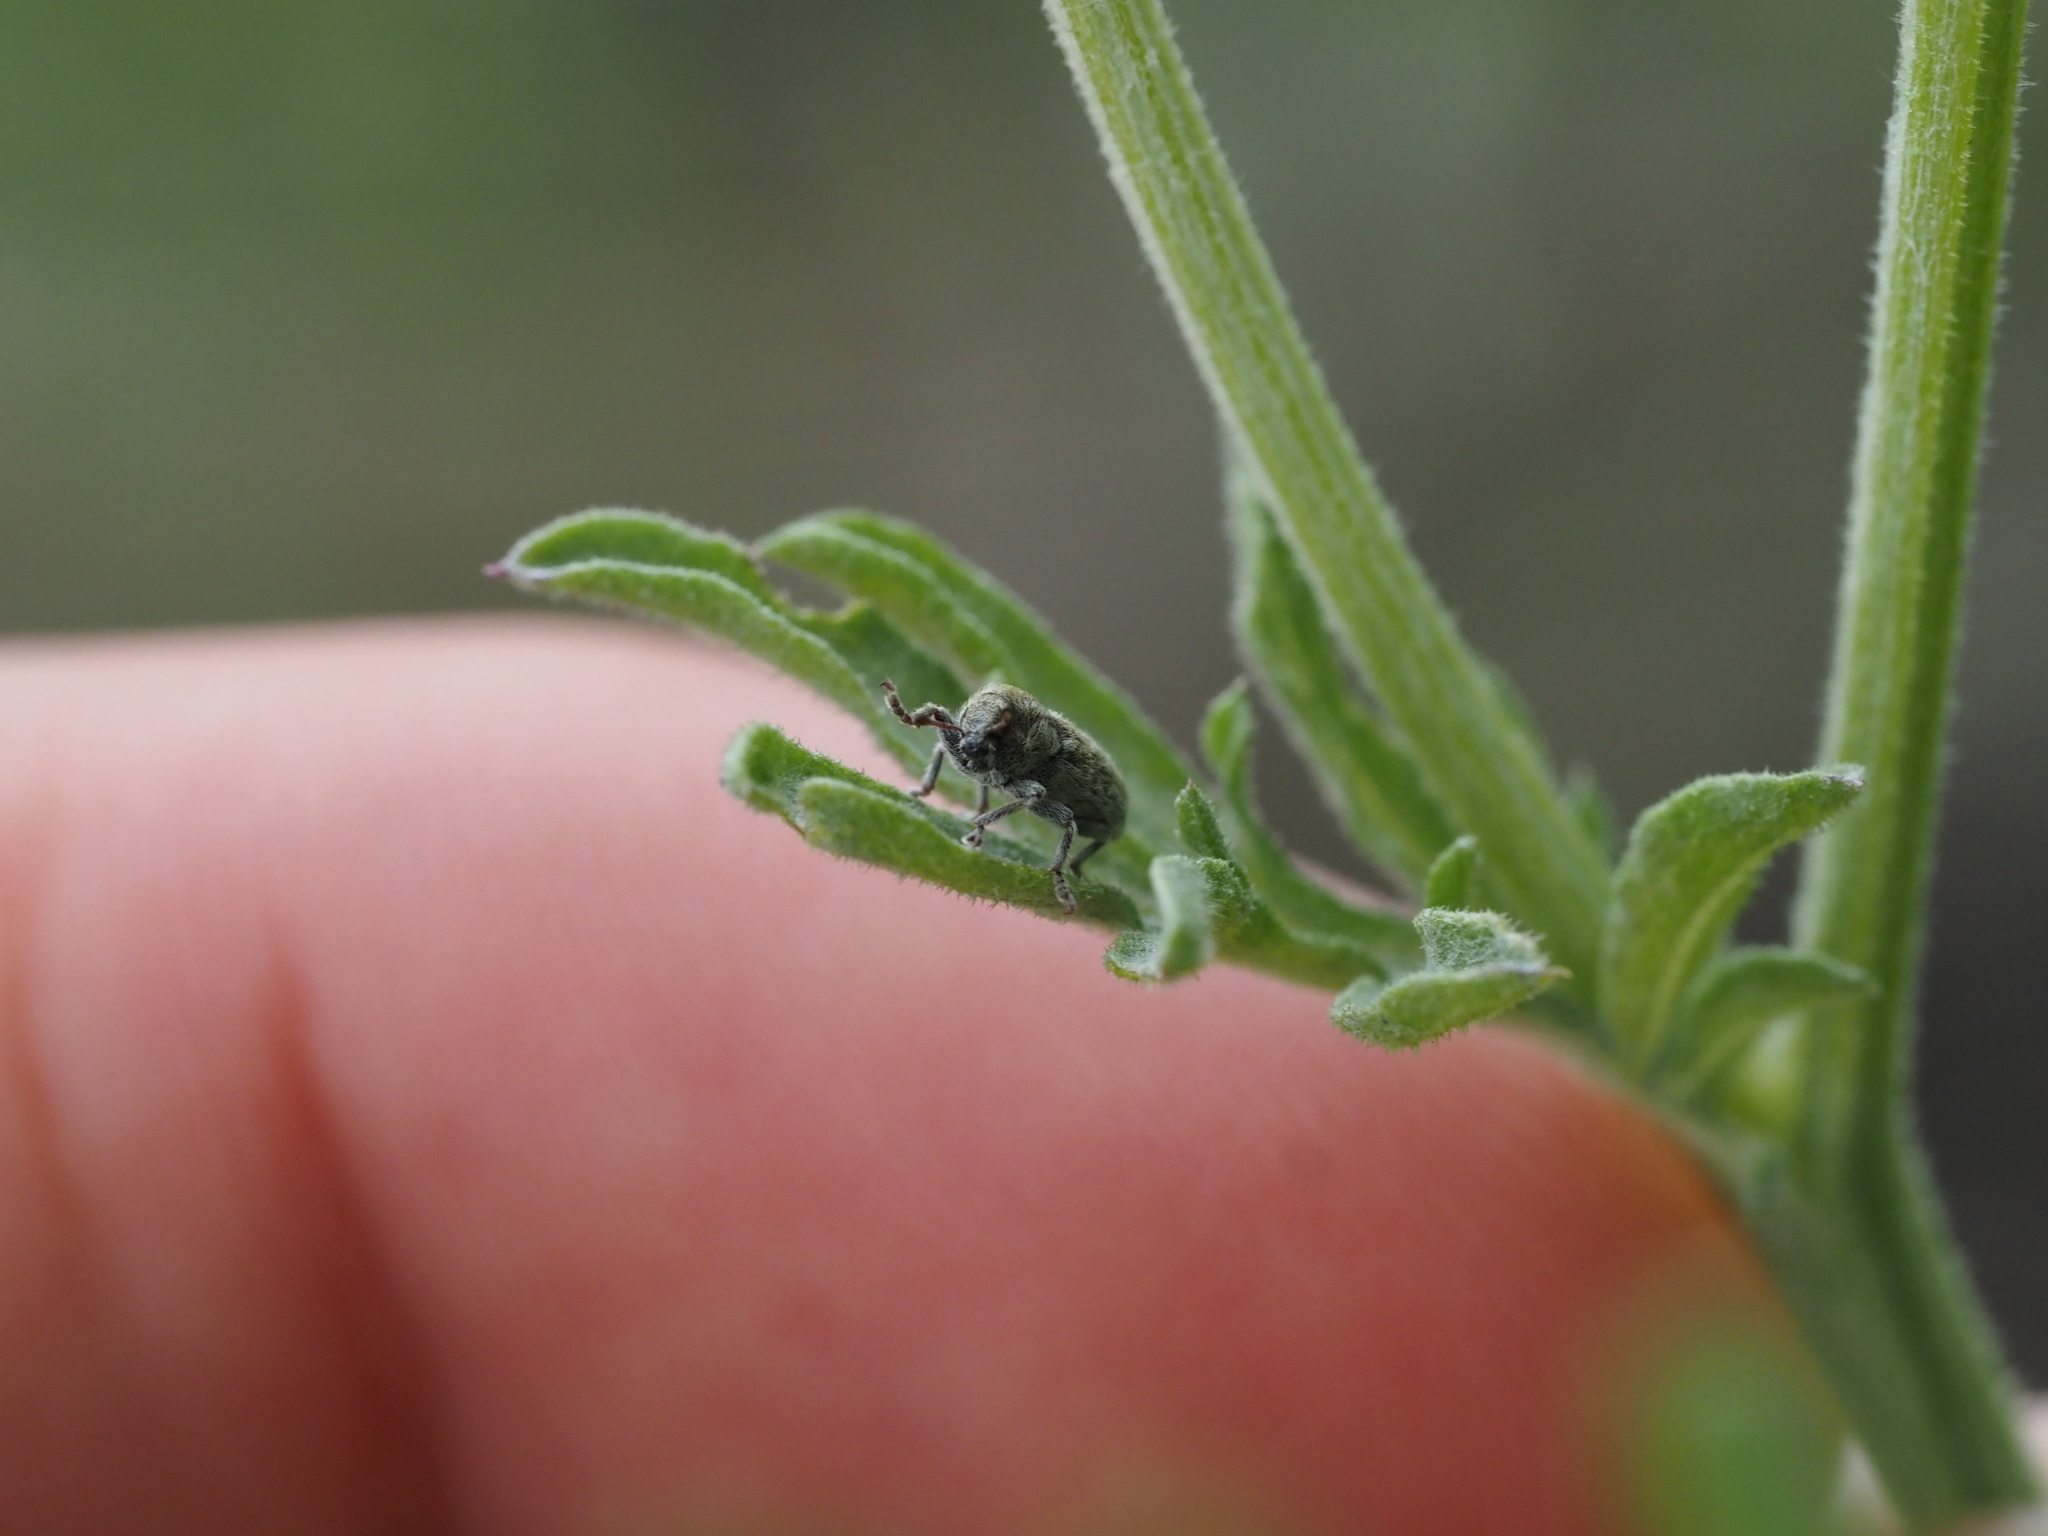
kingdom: Animalia
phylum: Arthropoda
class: Insecta
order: Coleoptera
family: Curculionidae
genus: Bangasternus
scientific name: Bangasternus fausti
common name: Broad-nosed knapweed seedhead weevil
